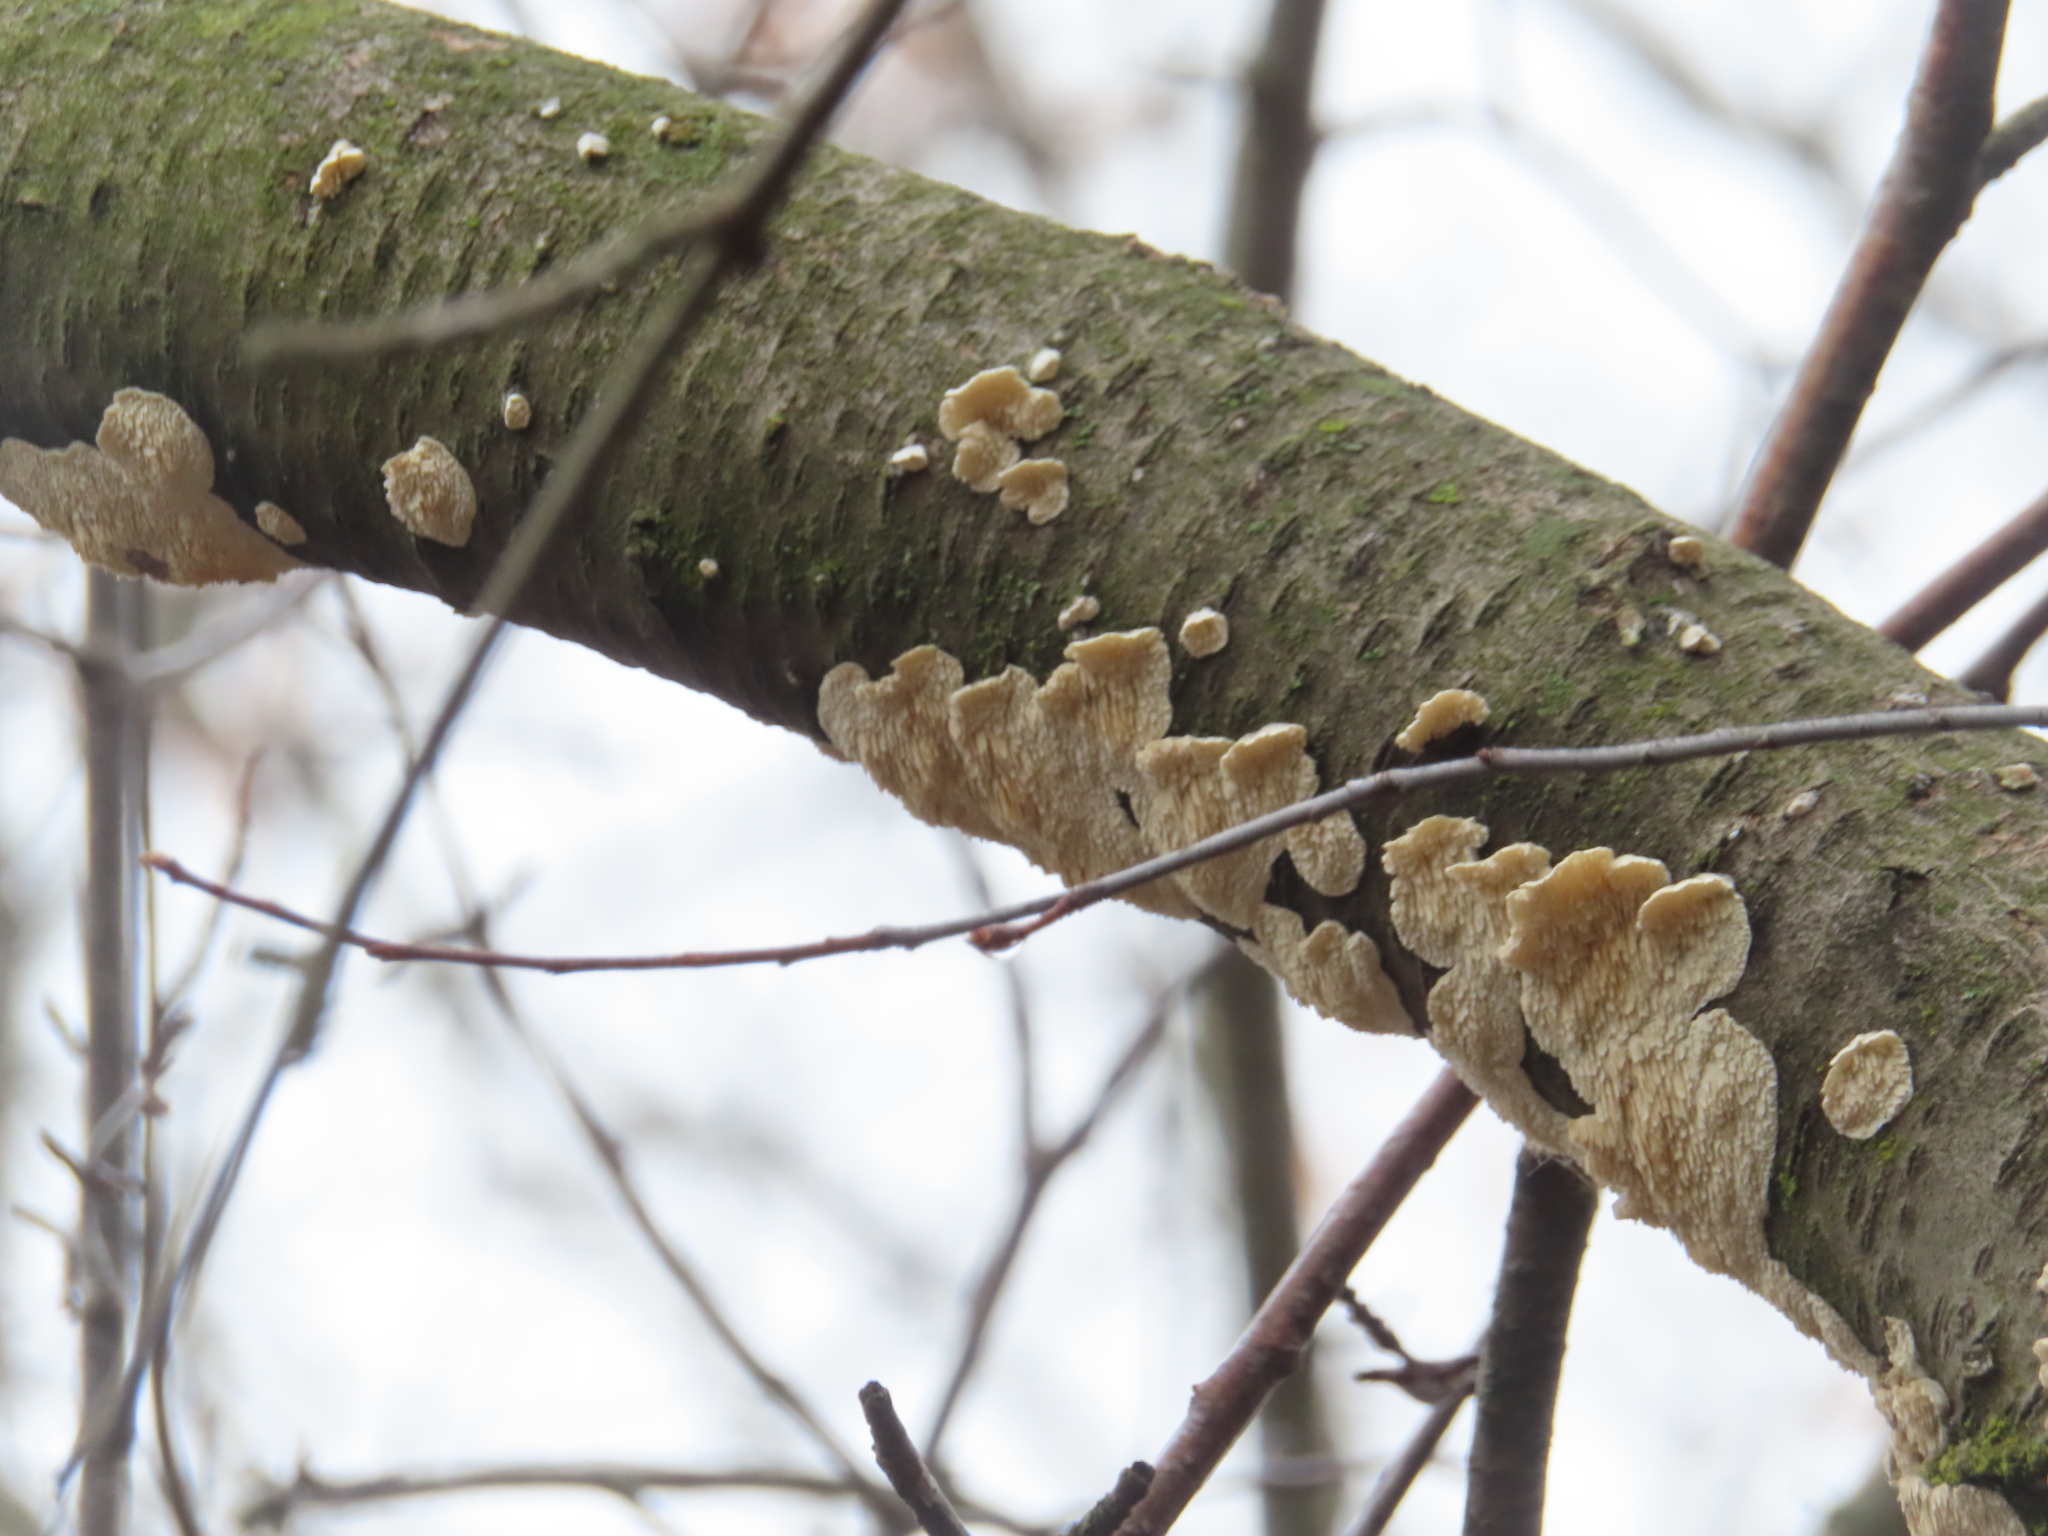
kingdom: Fungi
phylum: Basidiomycota
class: Agaricomycetes
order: Polyporales
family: Irpicaceae
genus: Irpex
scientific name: Irpex lacteus
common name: Milk-white toothed polypore
